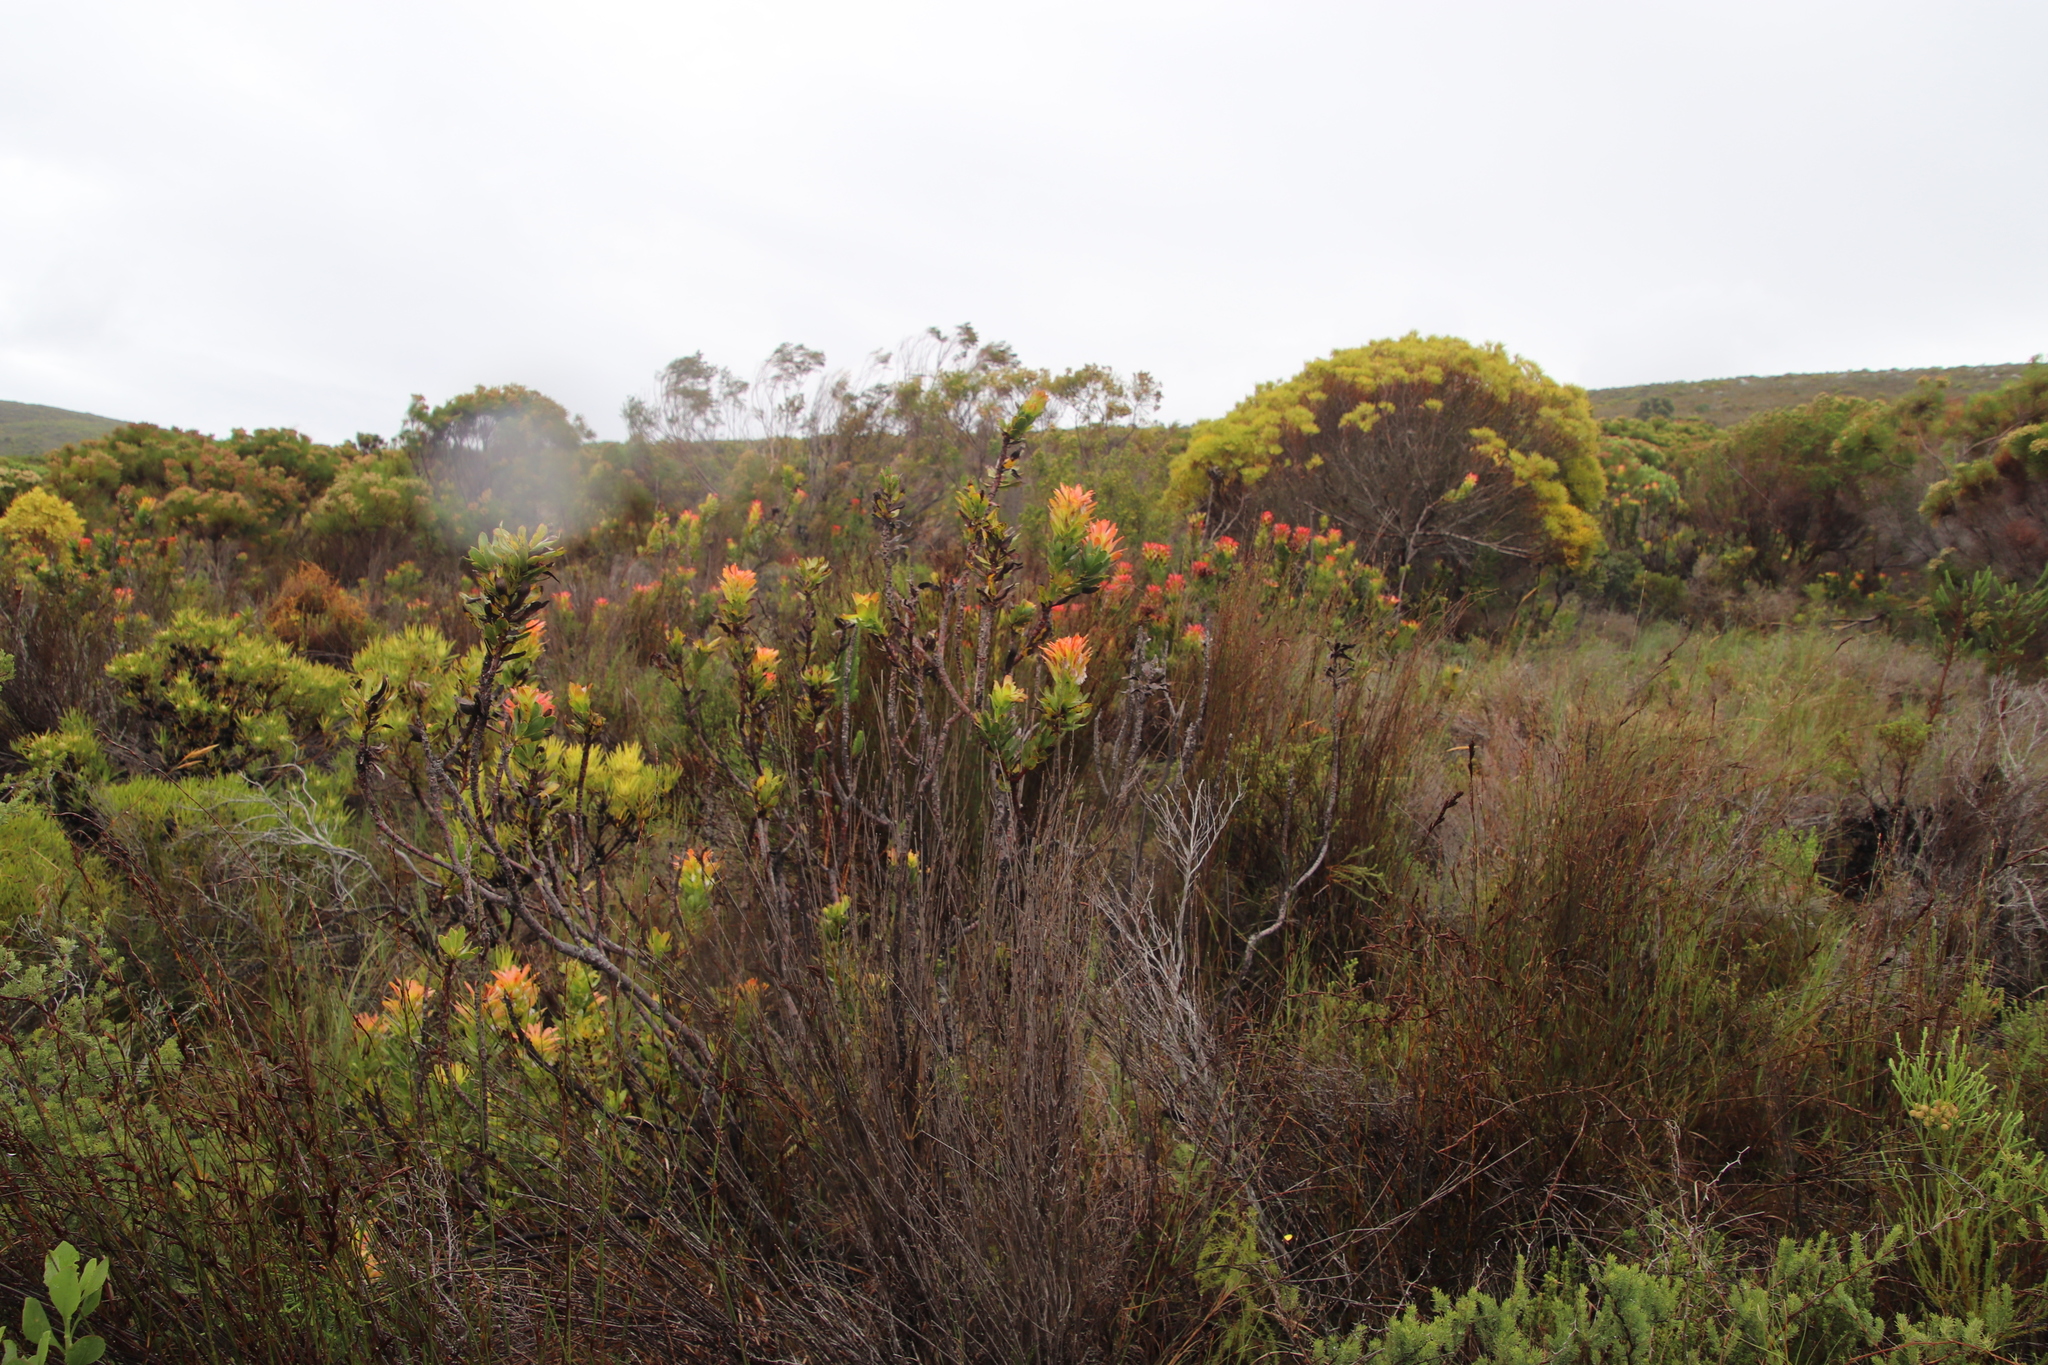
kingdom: Plantae
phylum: Tracheophyta
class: Magnoliopsida
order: Proteales
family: Proteaceae
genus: Mimetes
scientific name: Mimetes cucullatus
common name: Common pagoda
